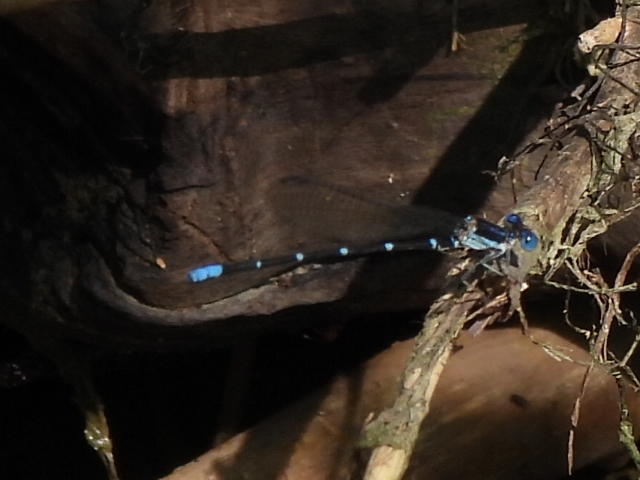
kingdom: Animalia
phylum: Arthropoda
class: Insecta
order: Odonata
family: Coenagrionidae
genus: Argia
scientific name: Argia sedula
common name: Blue-ringed dancer
